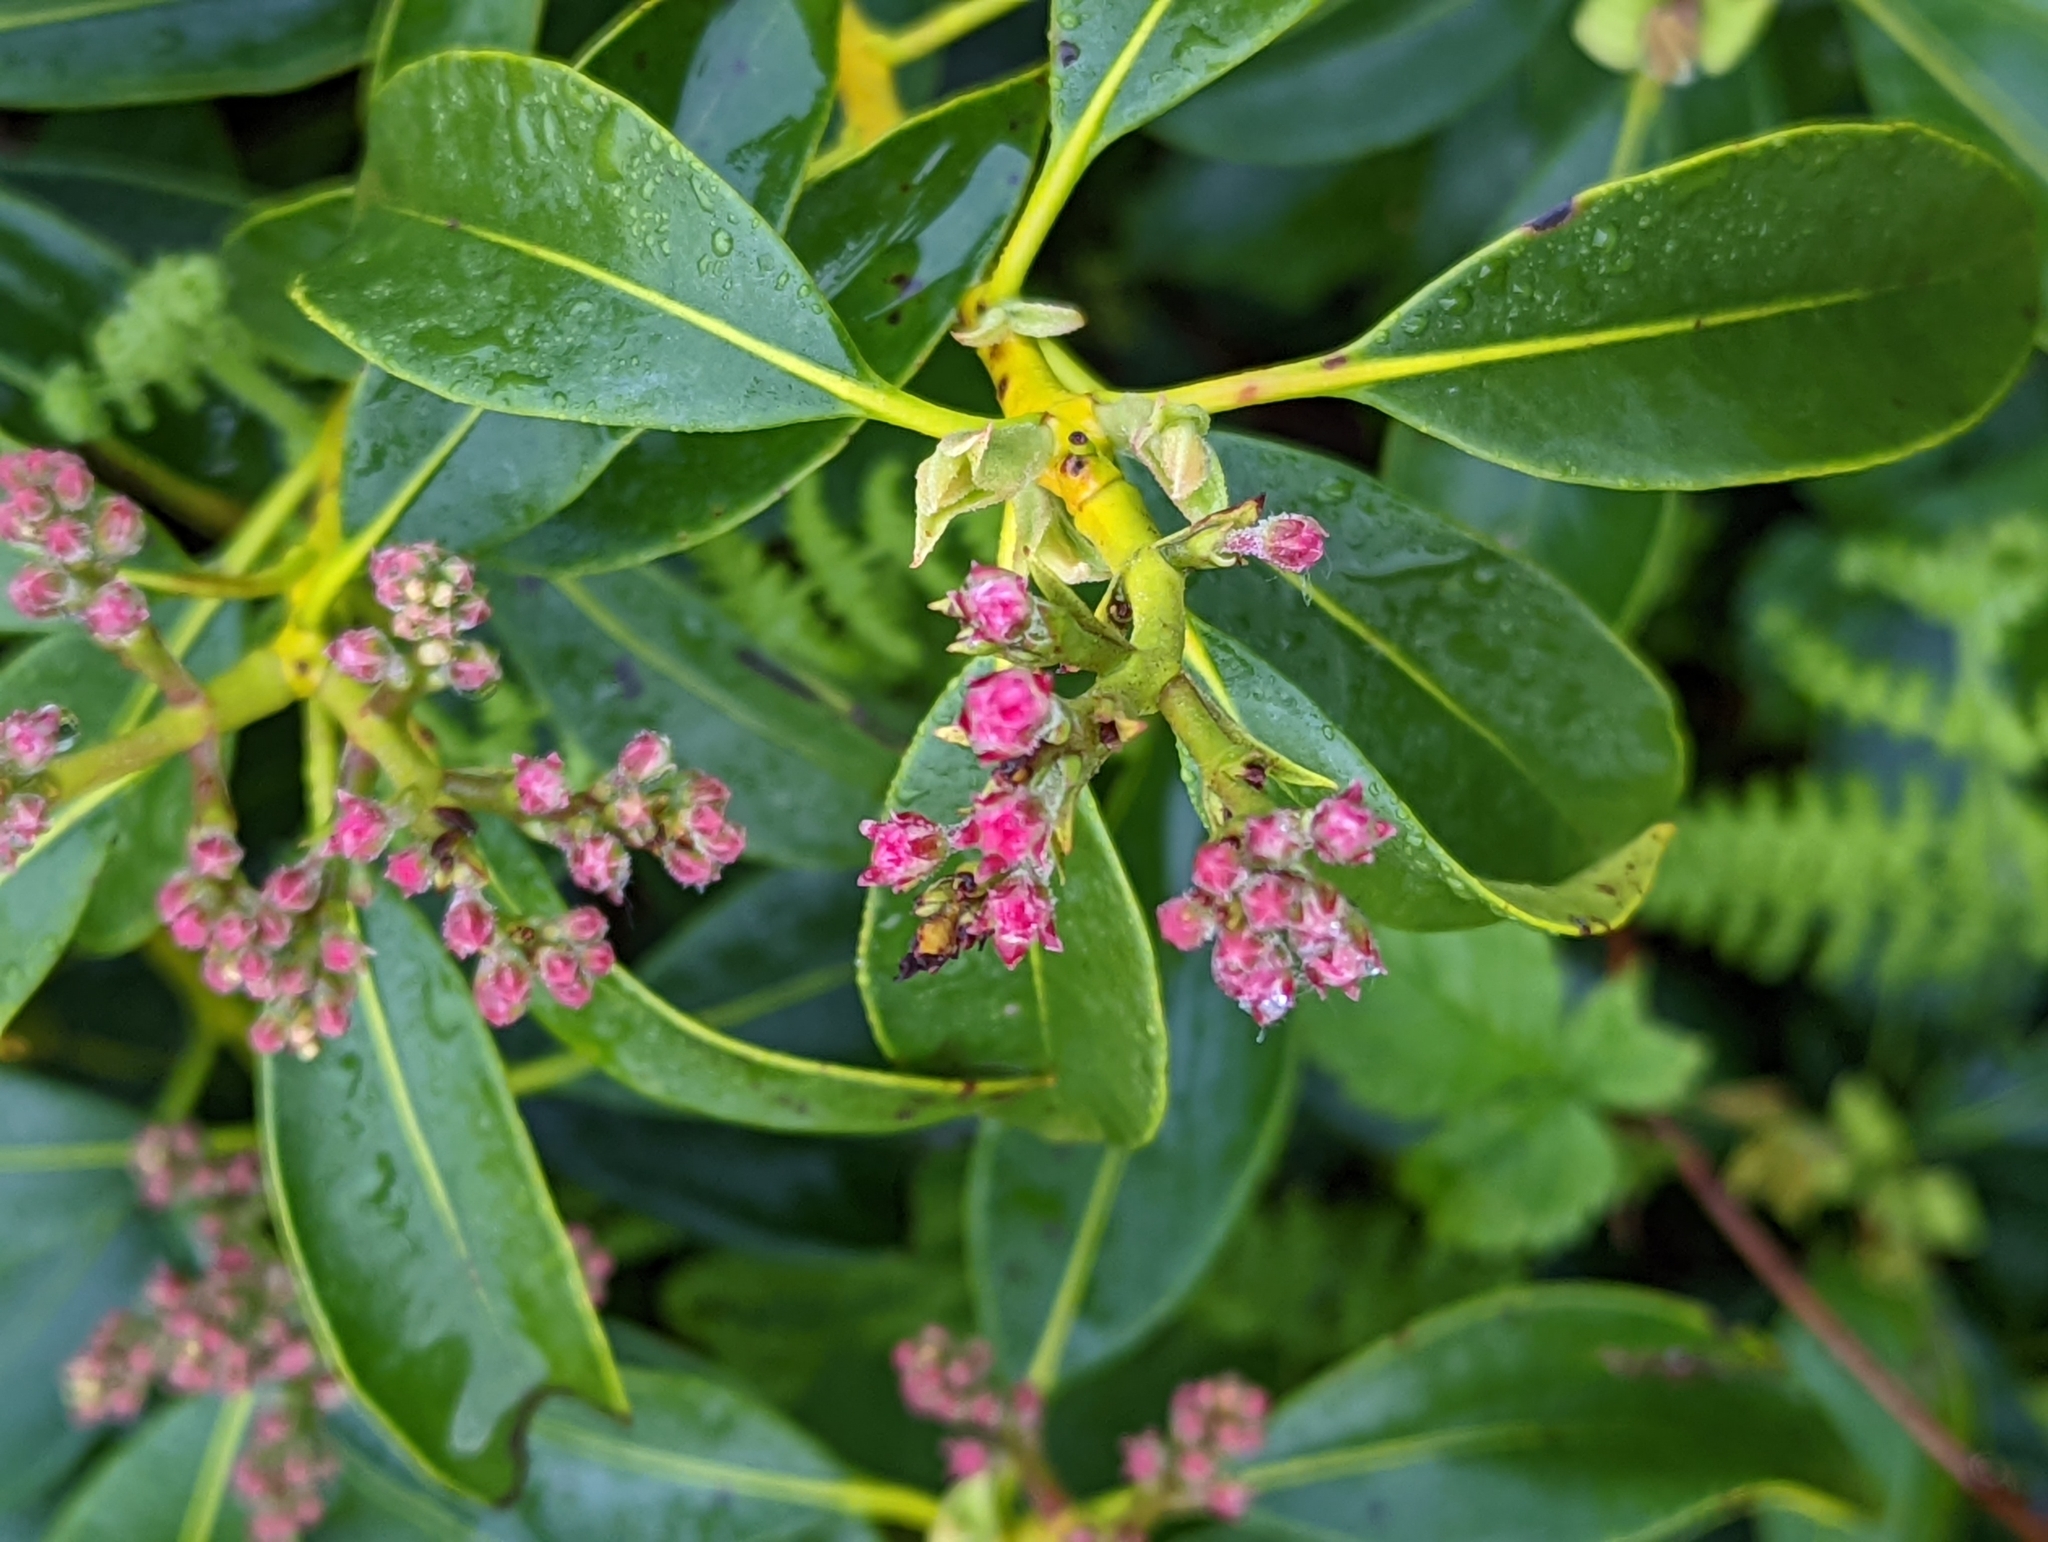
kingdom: Plantae
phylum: Tracheophyta
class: Magnoliopsida
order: Ericales
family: Ericaceae
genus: Kalmia
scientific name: Kalmia latifolia
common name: Mountain-laurel
